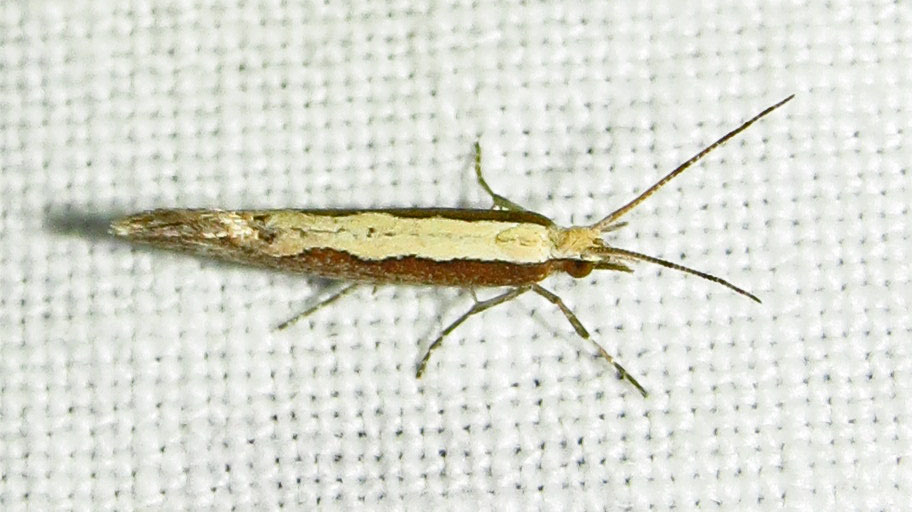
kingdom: Animalia
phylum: Arthropoda
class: Insecta
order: Lepidoptera
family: Plutellidae
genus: Plutella
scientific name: Plutella xylostella
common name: Diamond-back moth
